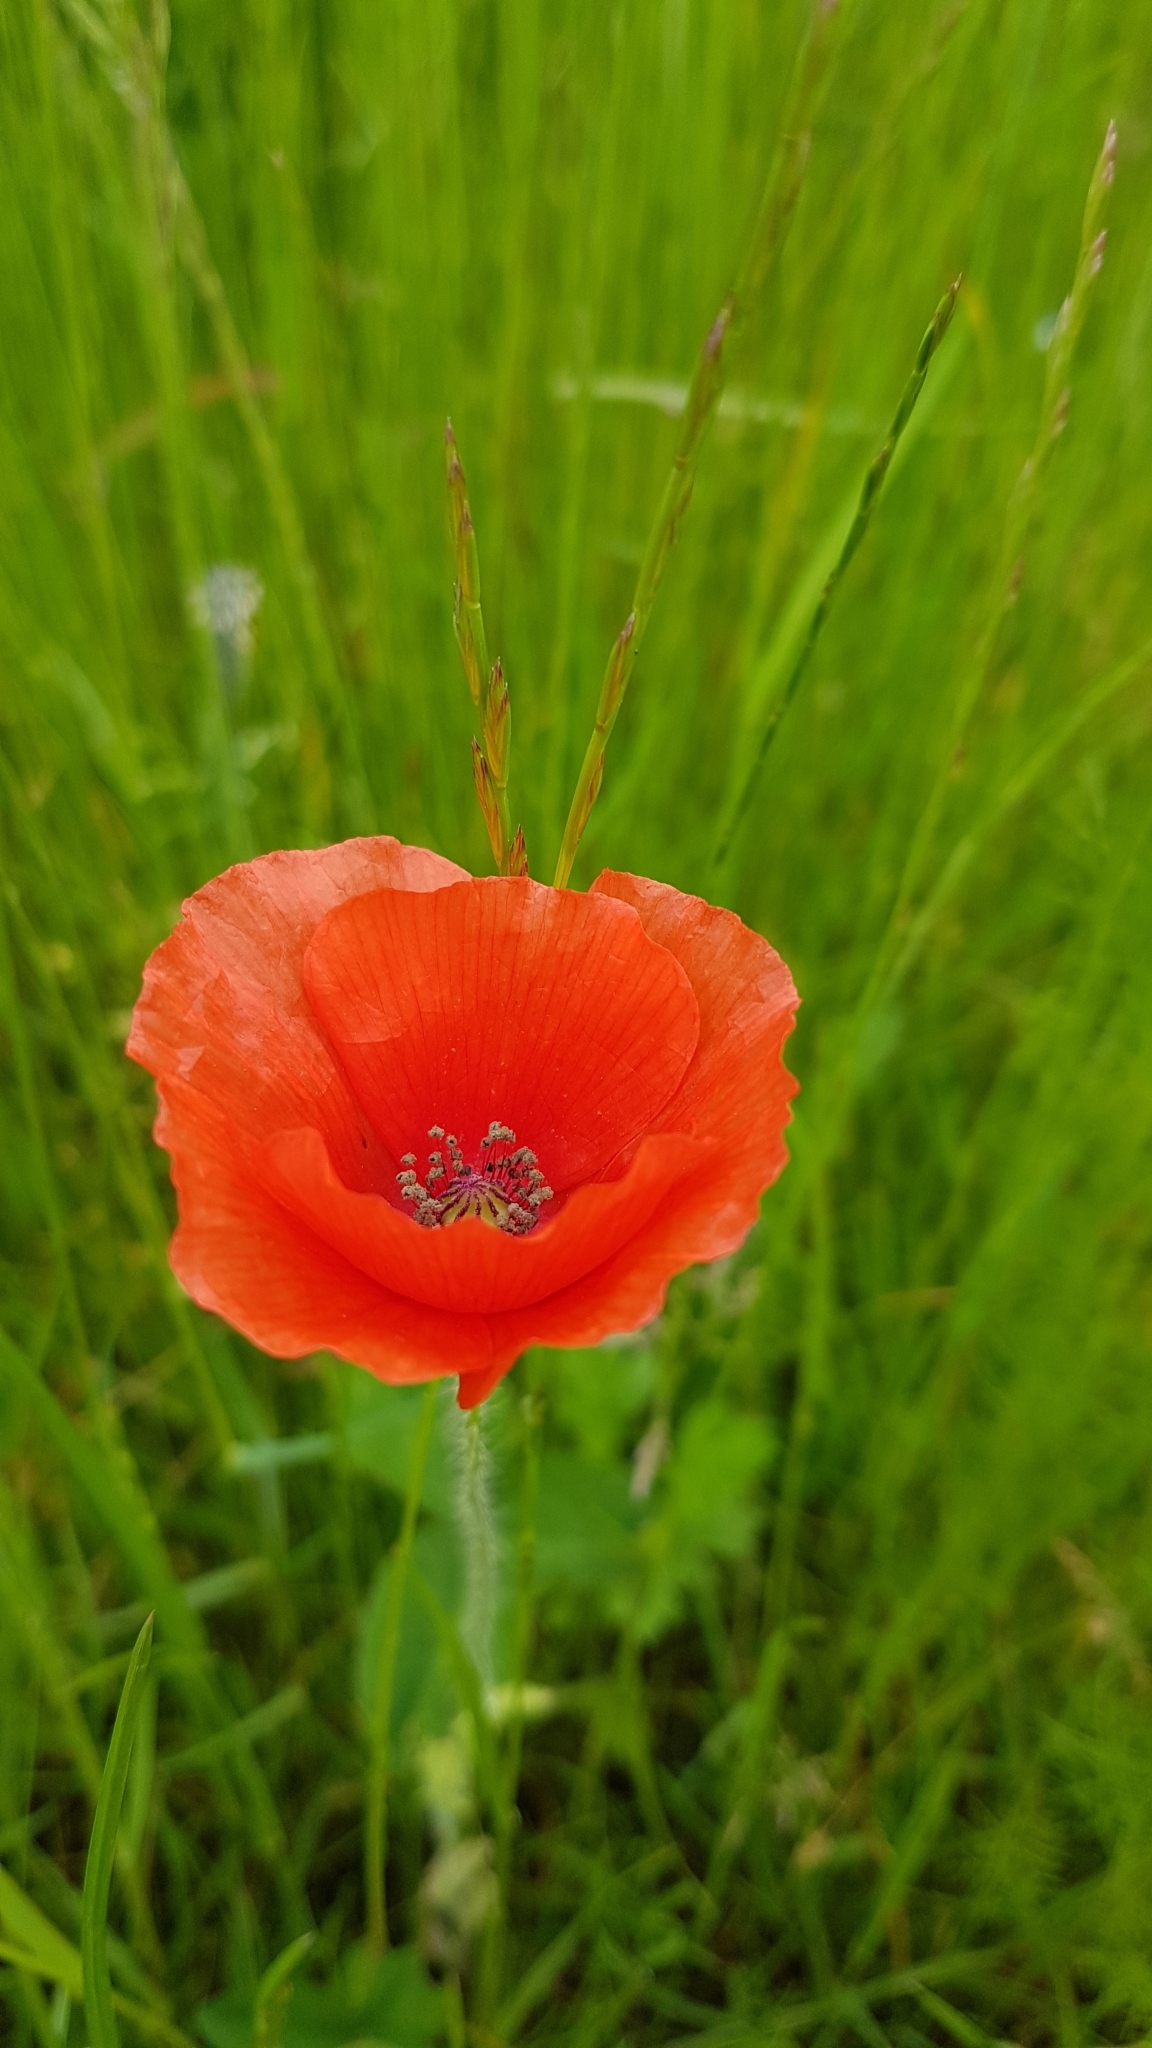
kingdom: Plantae
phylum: Tracheophyta
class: Magnoliopsida
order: Ranunculales
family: Papaveraceae
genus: Papaver
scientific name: Papaver rhoeas
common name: Corn poppy
